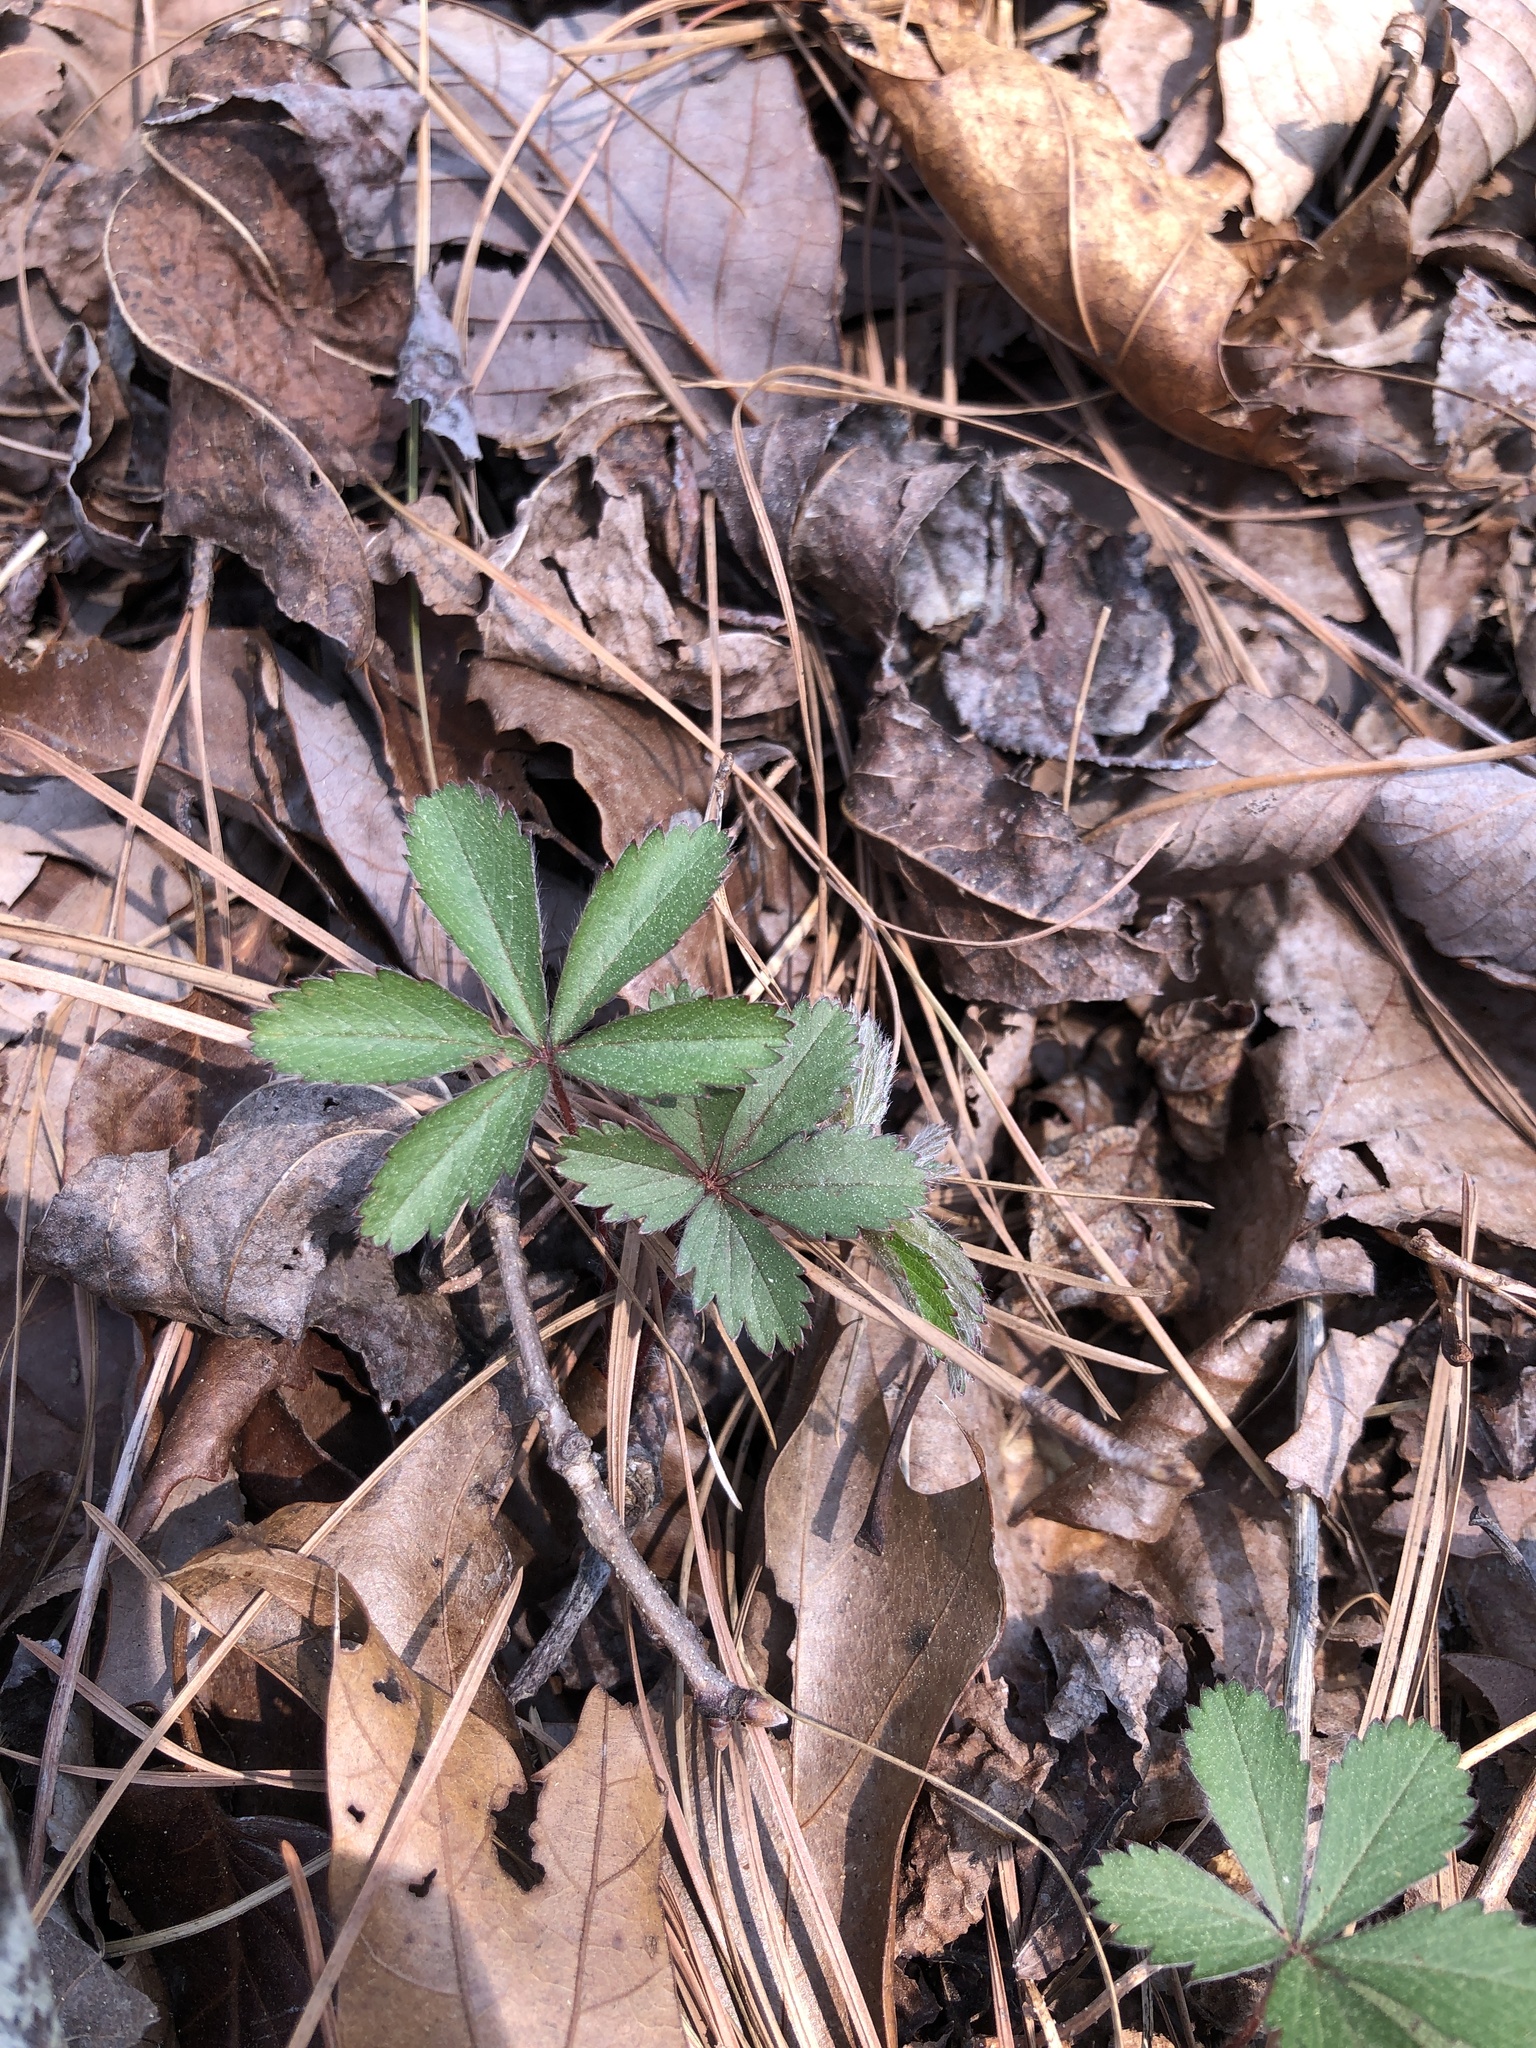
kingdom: Plantae
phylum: Tracheophyta
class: Magnoliopsida
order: Rosales
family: Rosaceae
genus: Potentilla
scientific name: Potentilla simplex
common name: Old field cinquefoil
